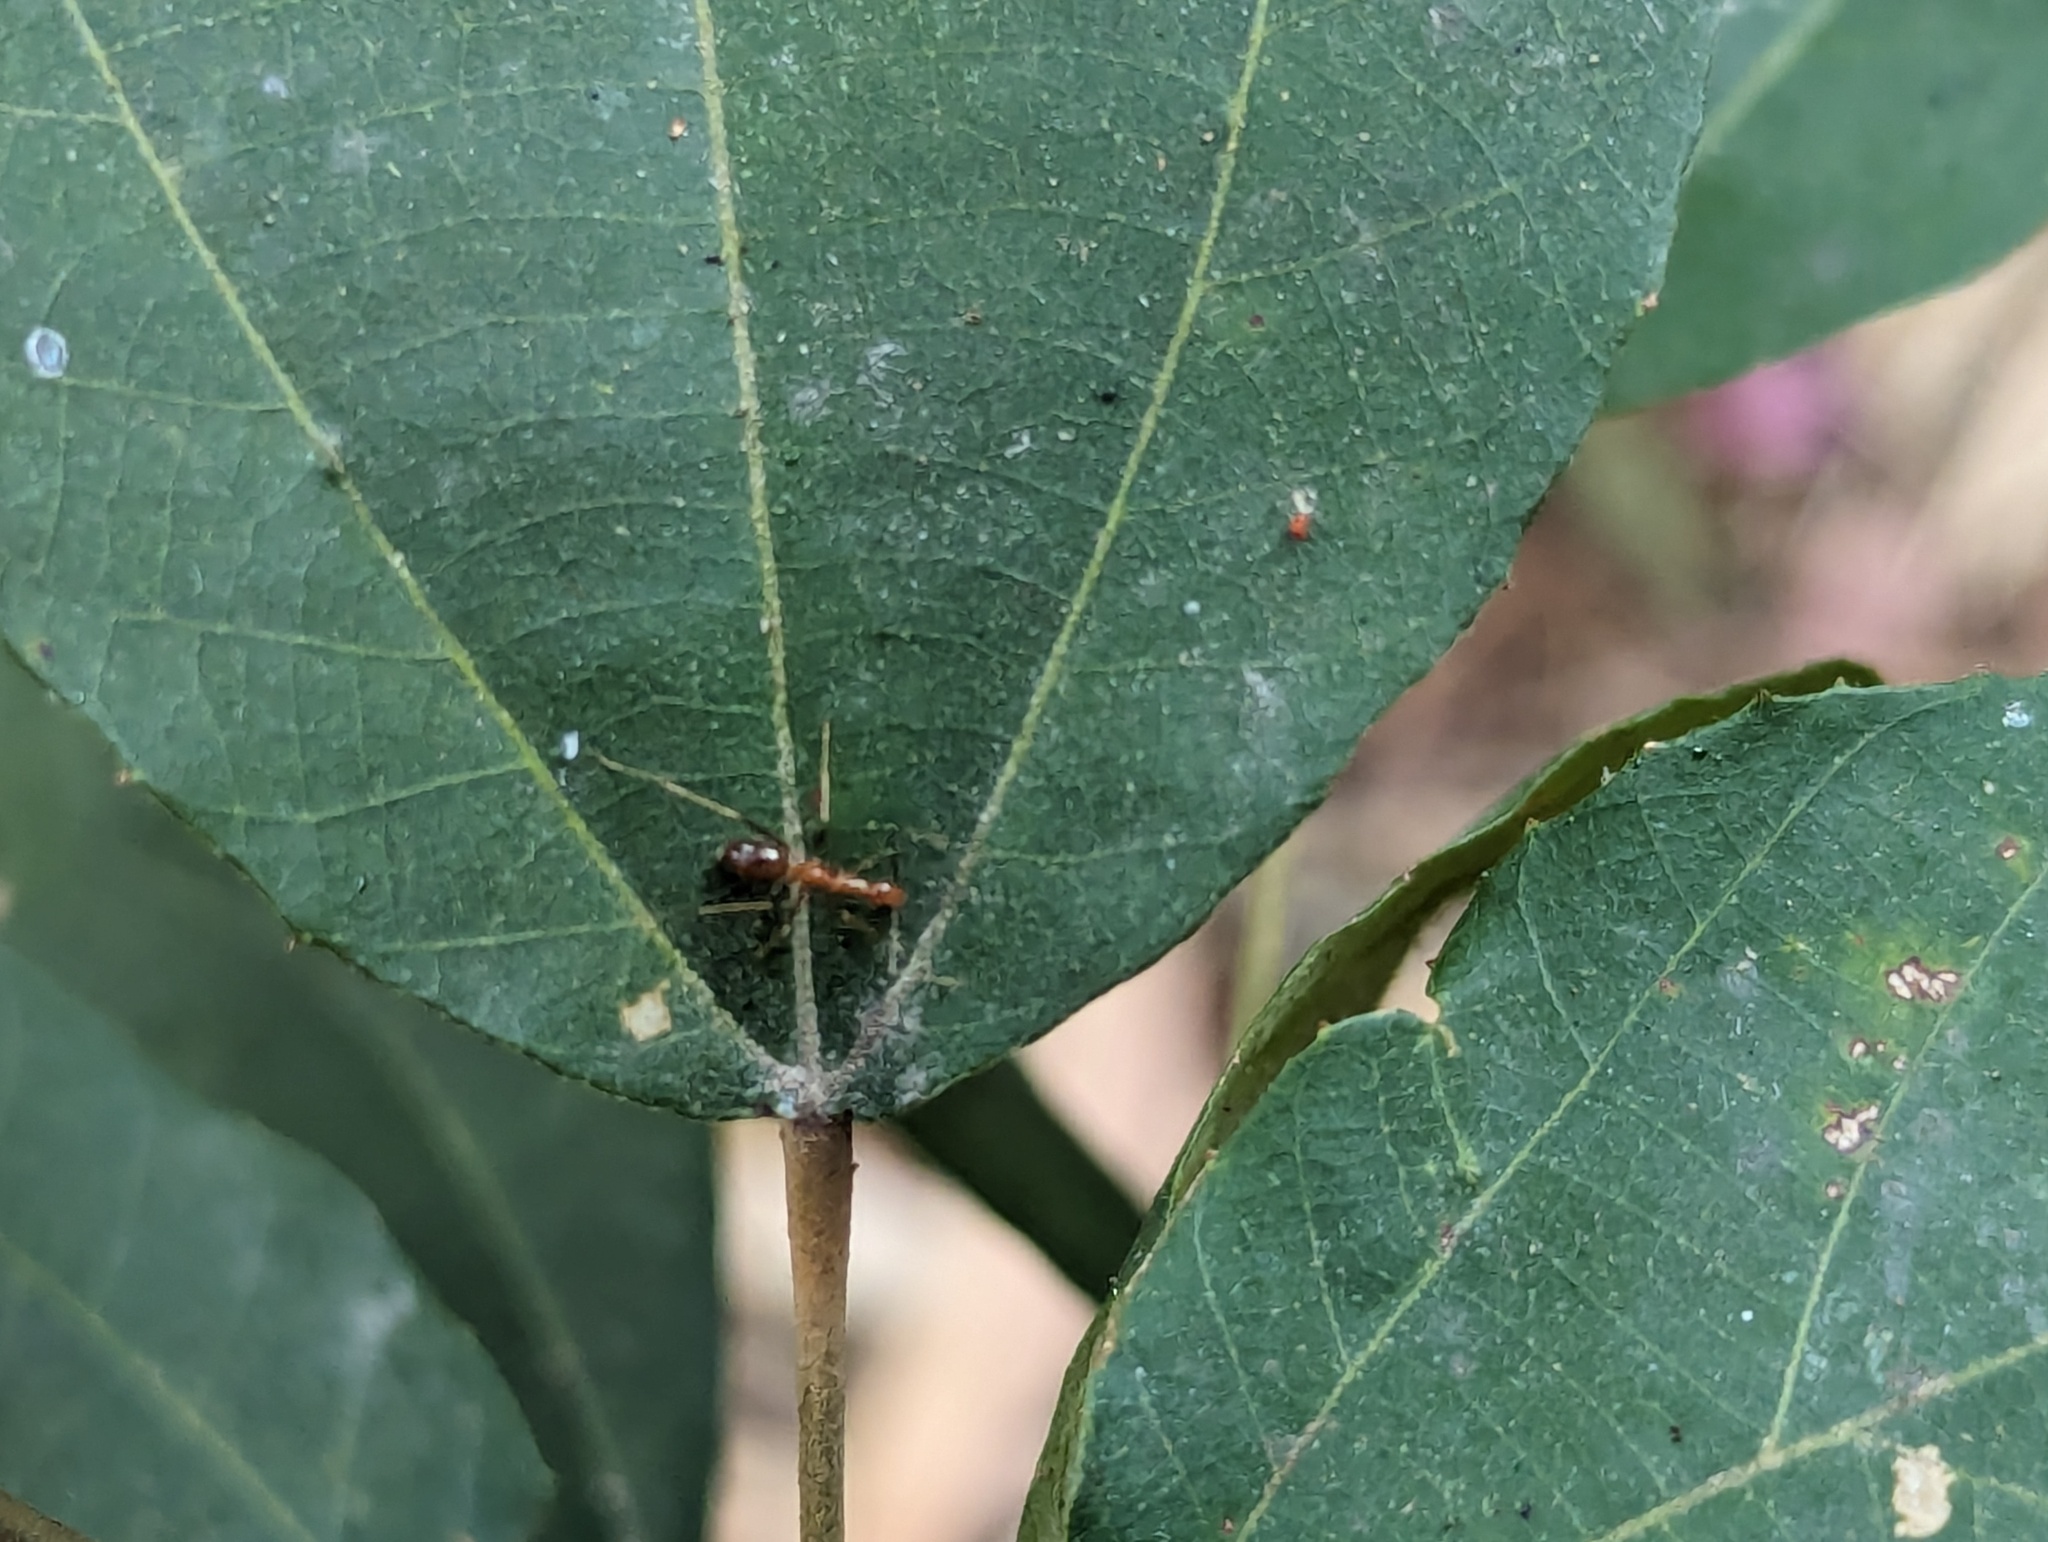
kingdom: Animalia
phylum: Arthropoda
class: Insecta
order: Hymenoptera
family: Formicidae
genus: Anoplolepis
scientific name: Anoplolepis gracilipes
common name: Ant
